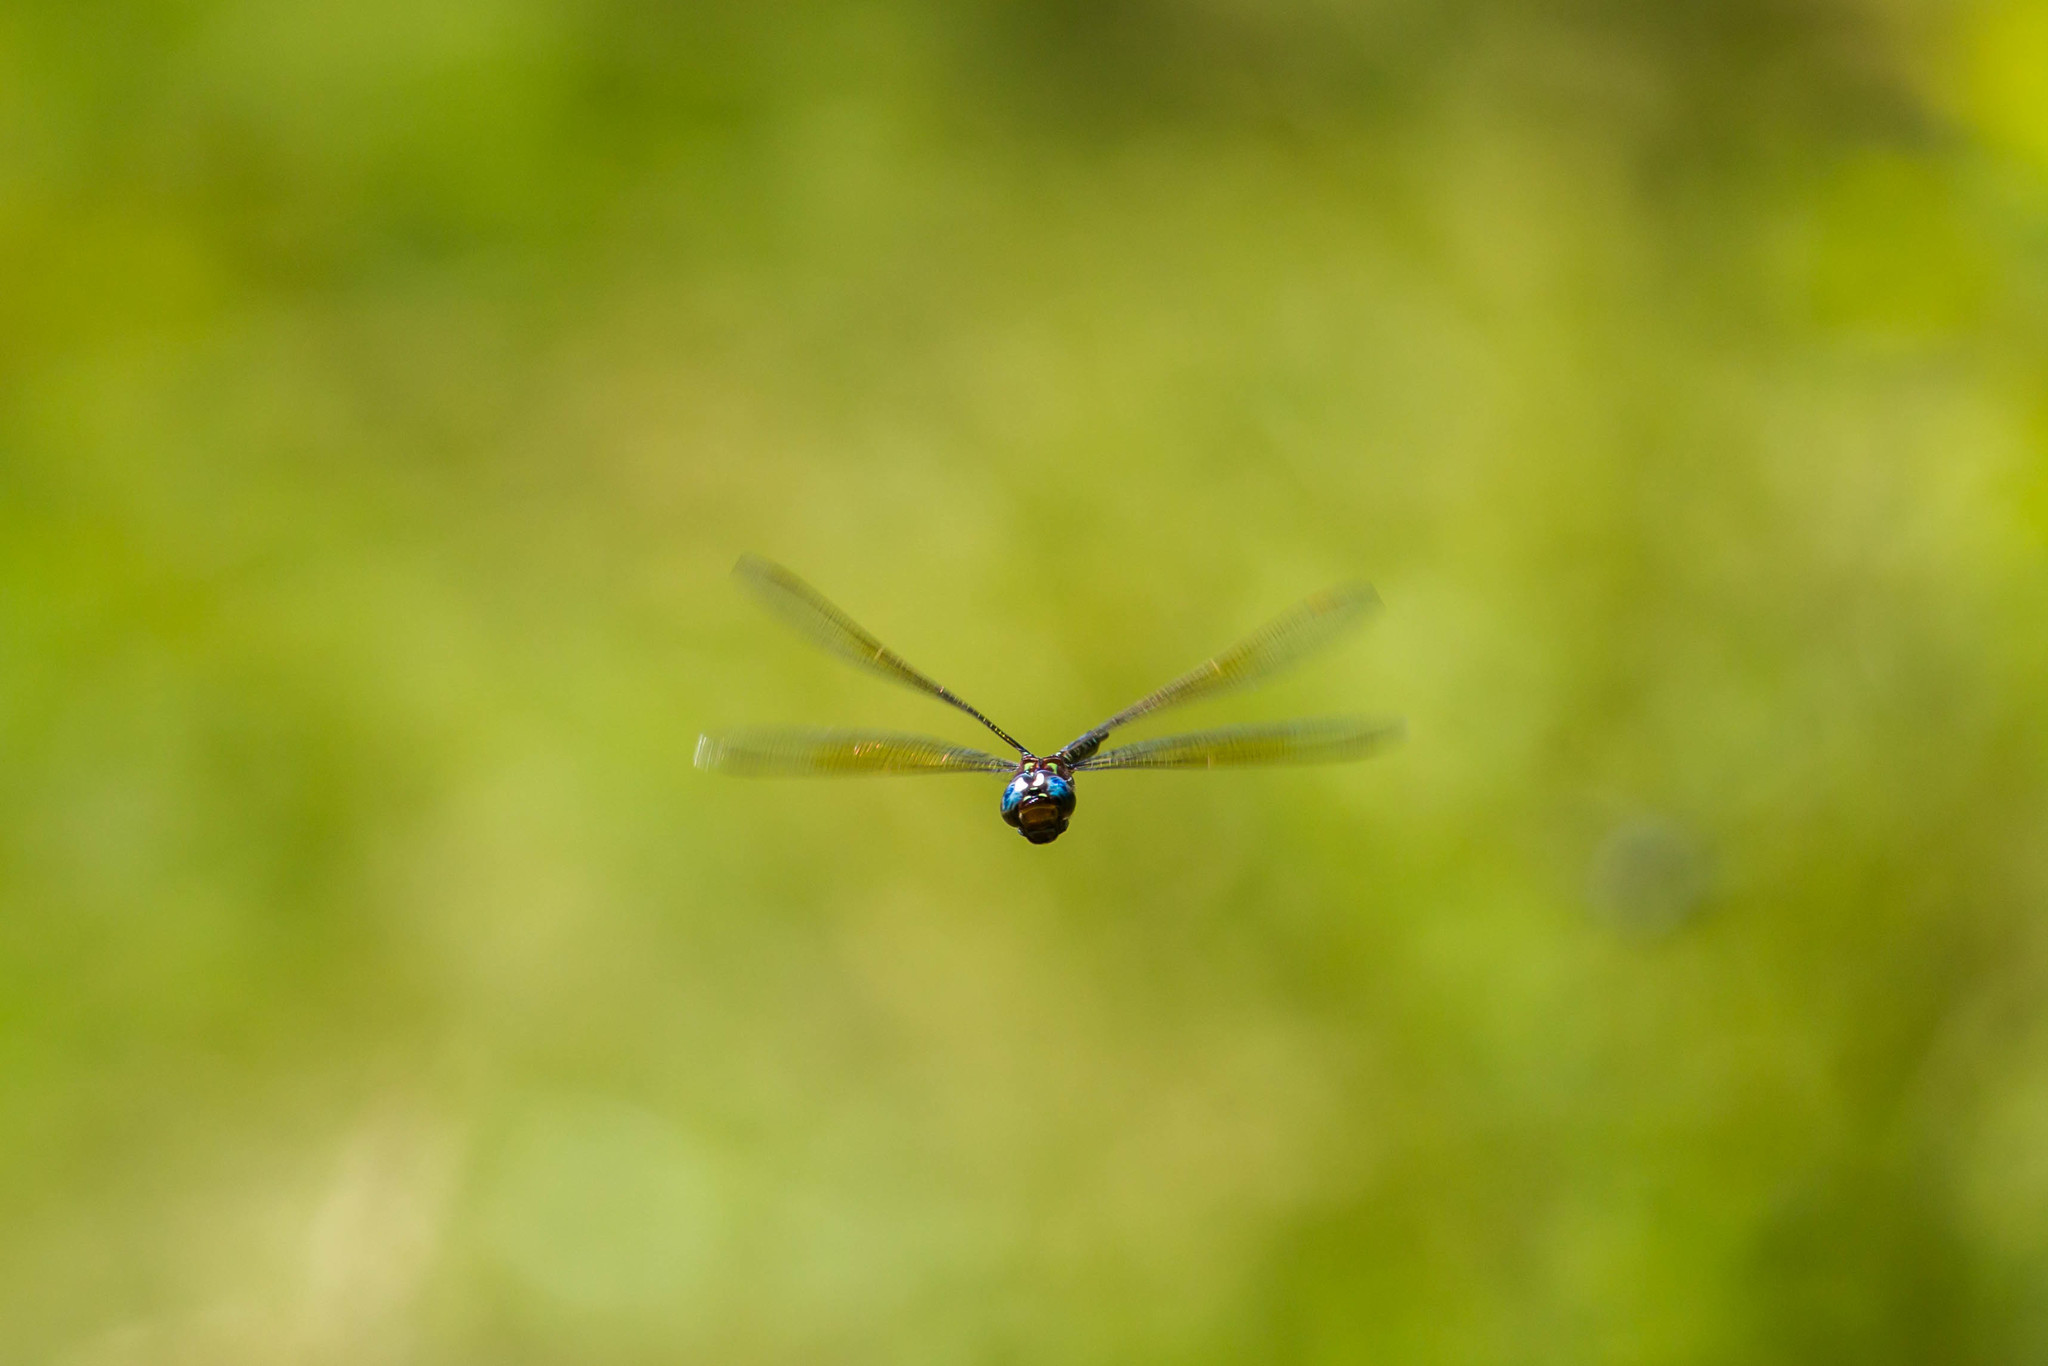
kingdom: Animalia
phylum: Arthropoda
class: Insecta
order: Odonata
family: Aeshnidae
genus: Epiaeschna
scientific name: Epiaeschna heros
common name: Swamp darner
